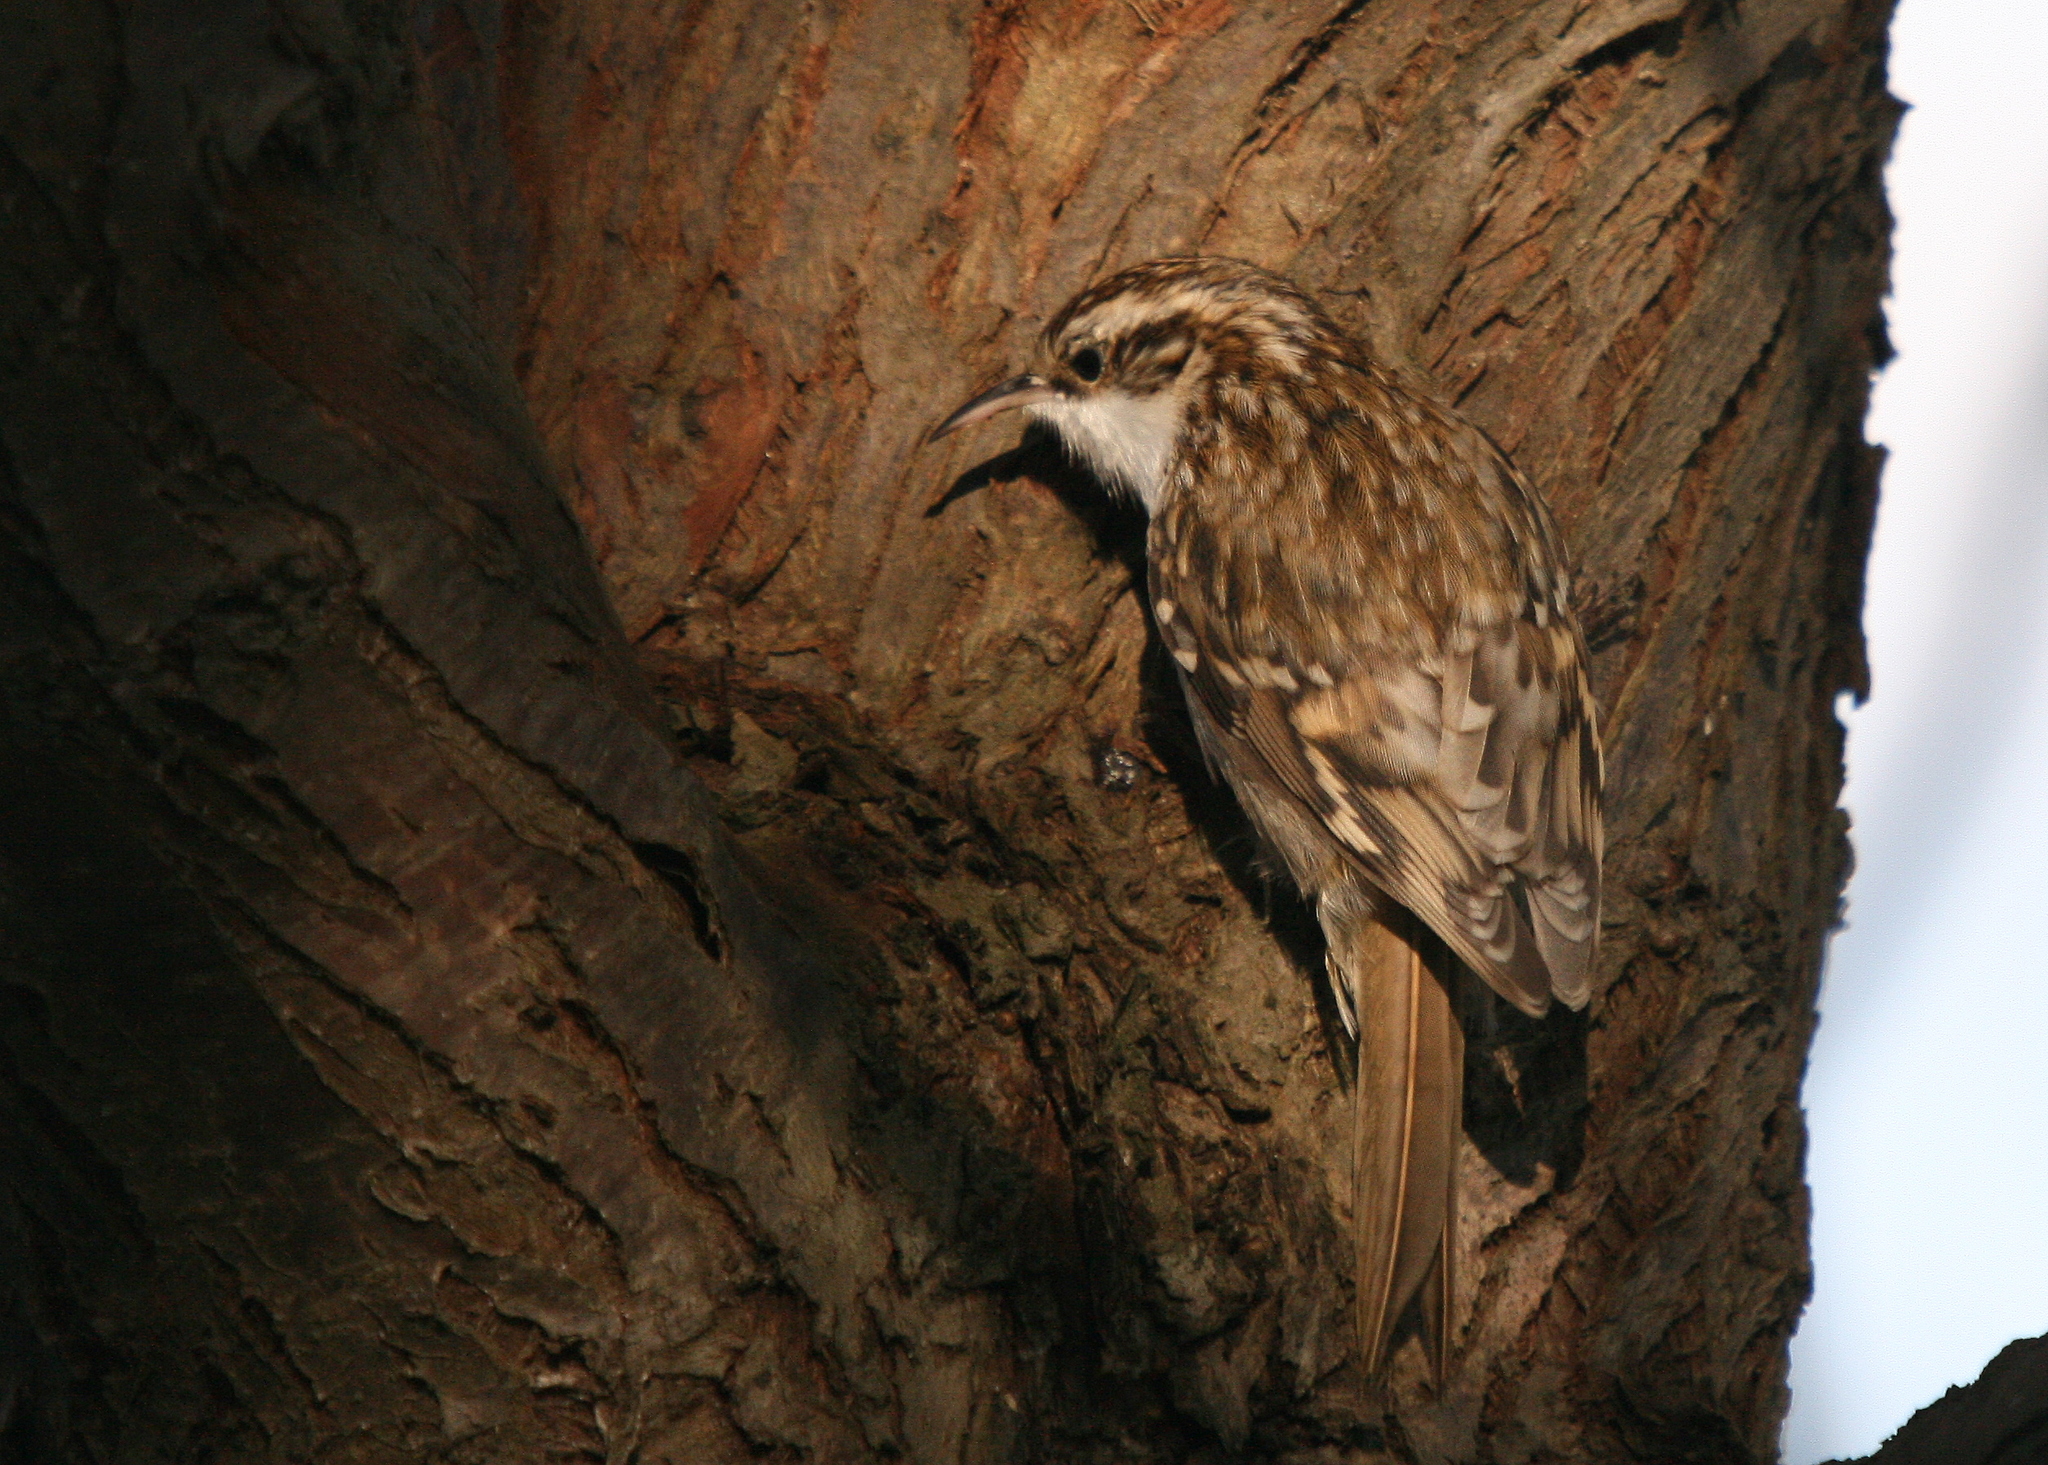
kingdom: Animalia
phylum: Chordata
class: Aves
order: Passeriformes
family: Certhiidae
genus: Certhia
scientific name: Certhia familiaris
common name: Eurasian treecreeper
